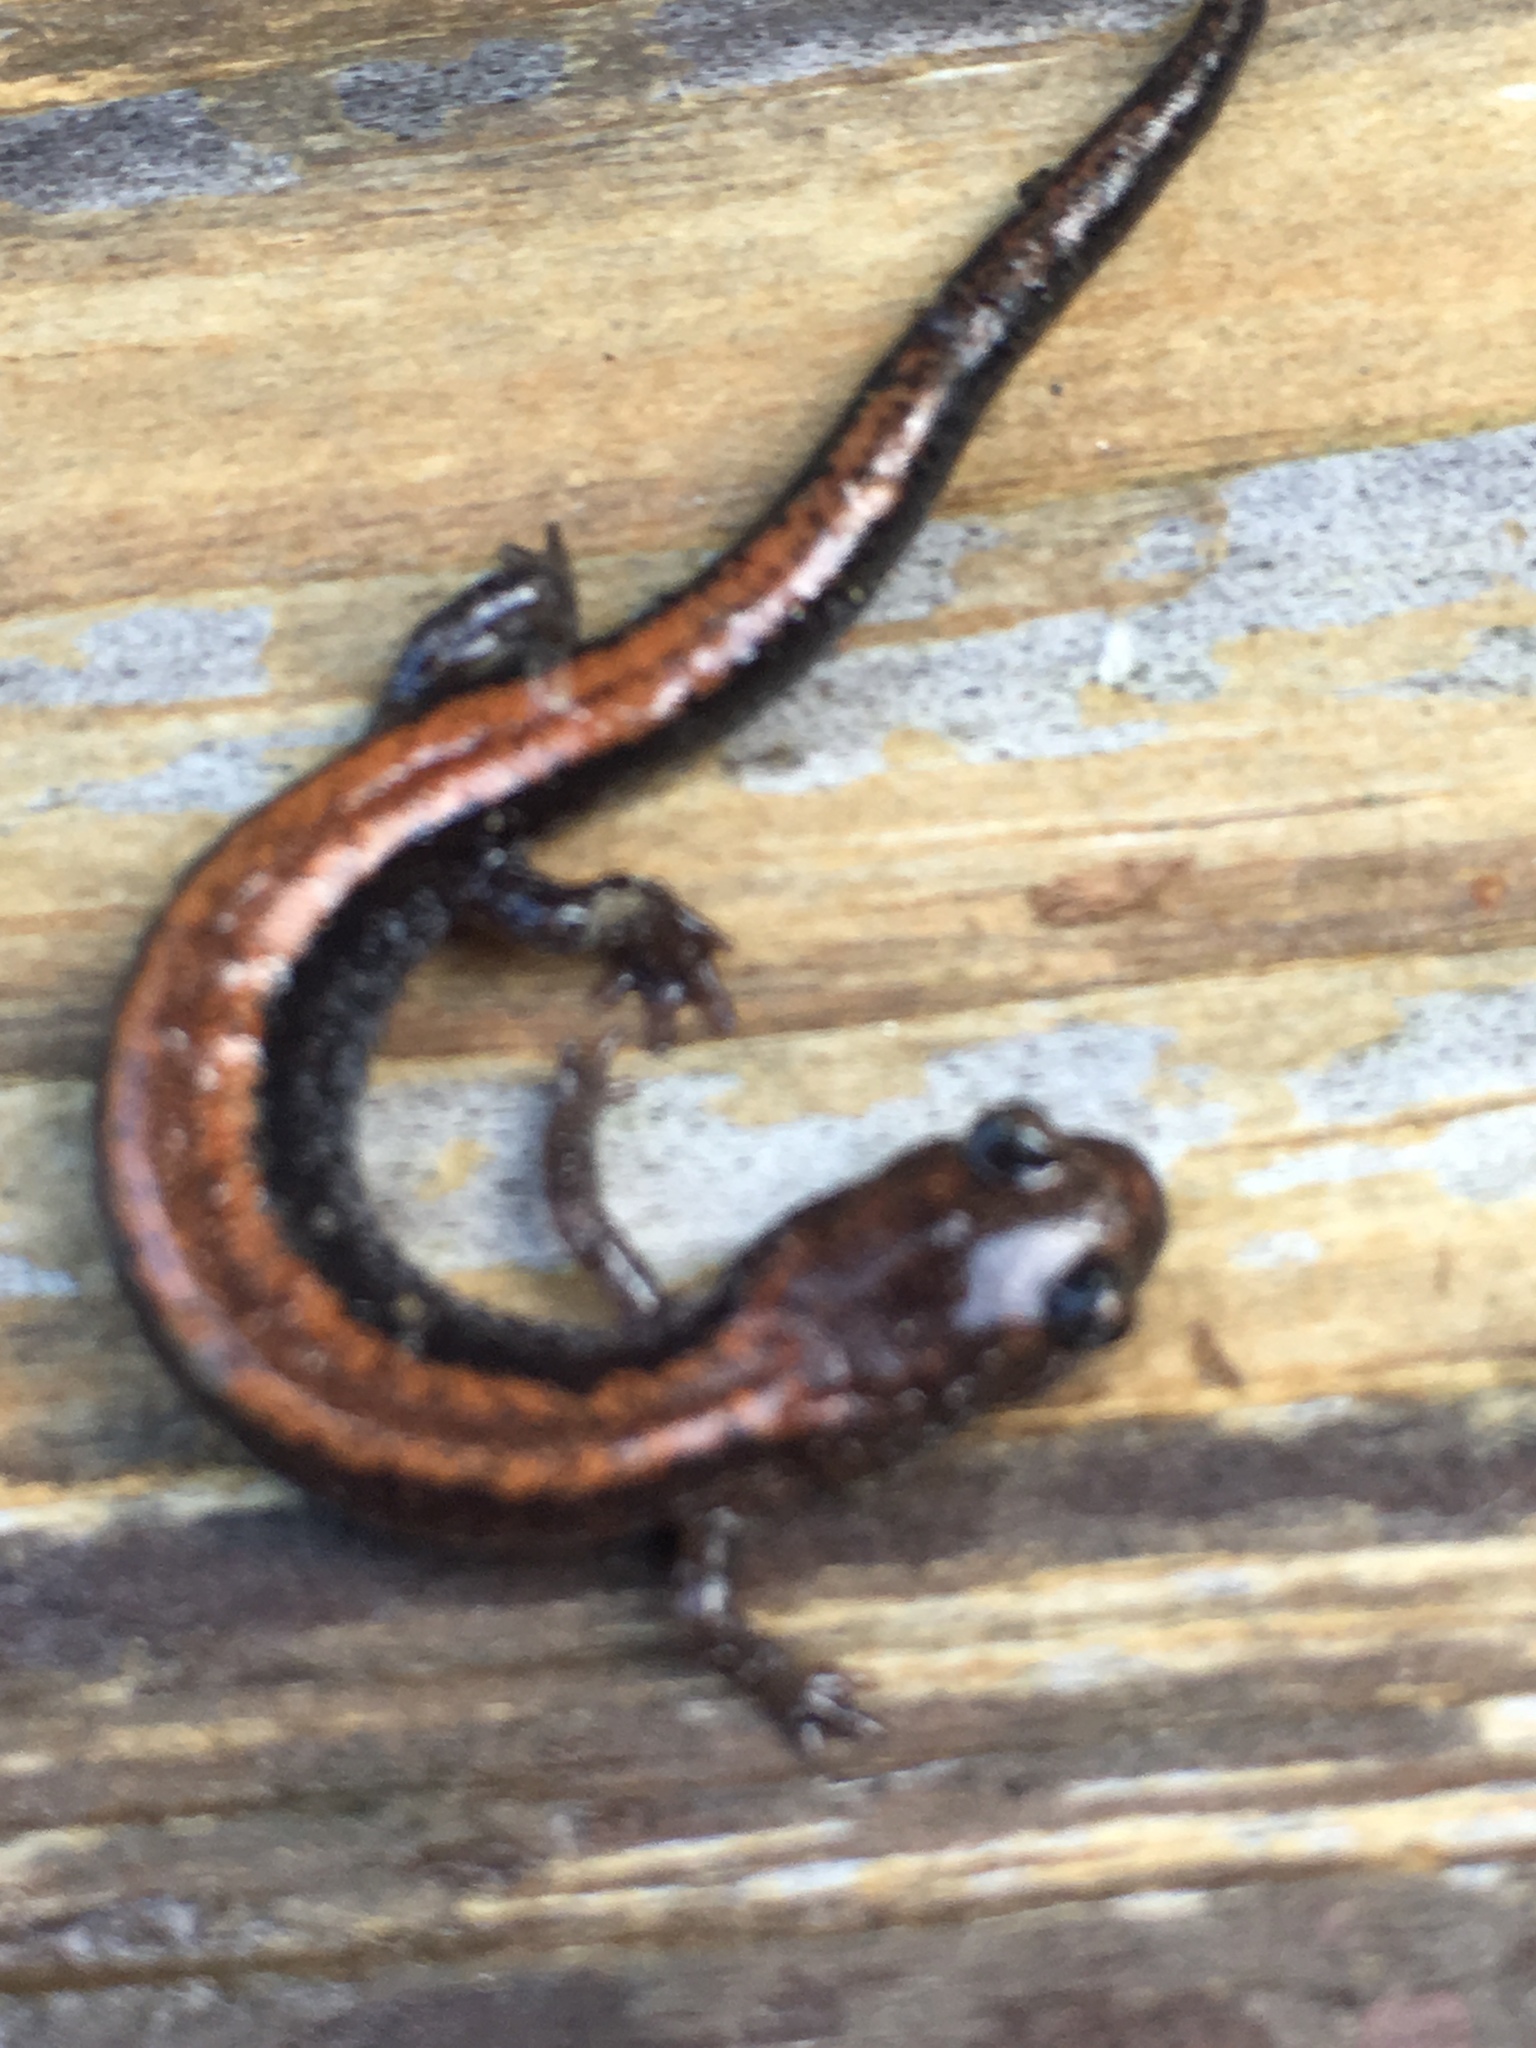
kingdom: Animalia
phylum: Chordata
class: Amphibia
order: Caudata
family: Plethodontidae
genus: Plethodon
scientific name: Plethodon cinereus
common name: Redback salamander
